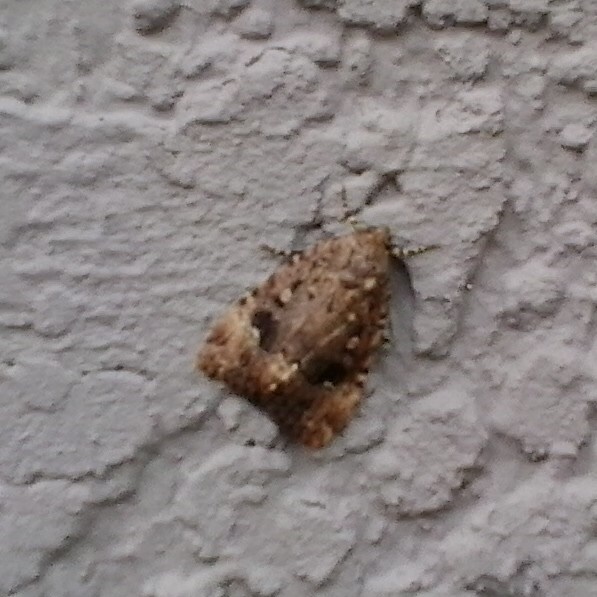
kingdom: Animalia
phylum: Arthropoda
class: Insecta
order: Lepidoptera
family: Noctuidae
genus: Amphipyra
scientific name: Amphipyra pyramidoides
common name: American copper underwing
